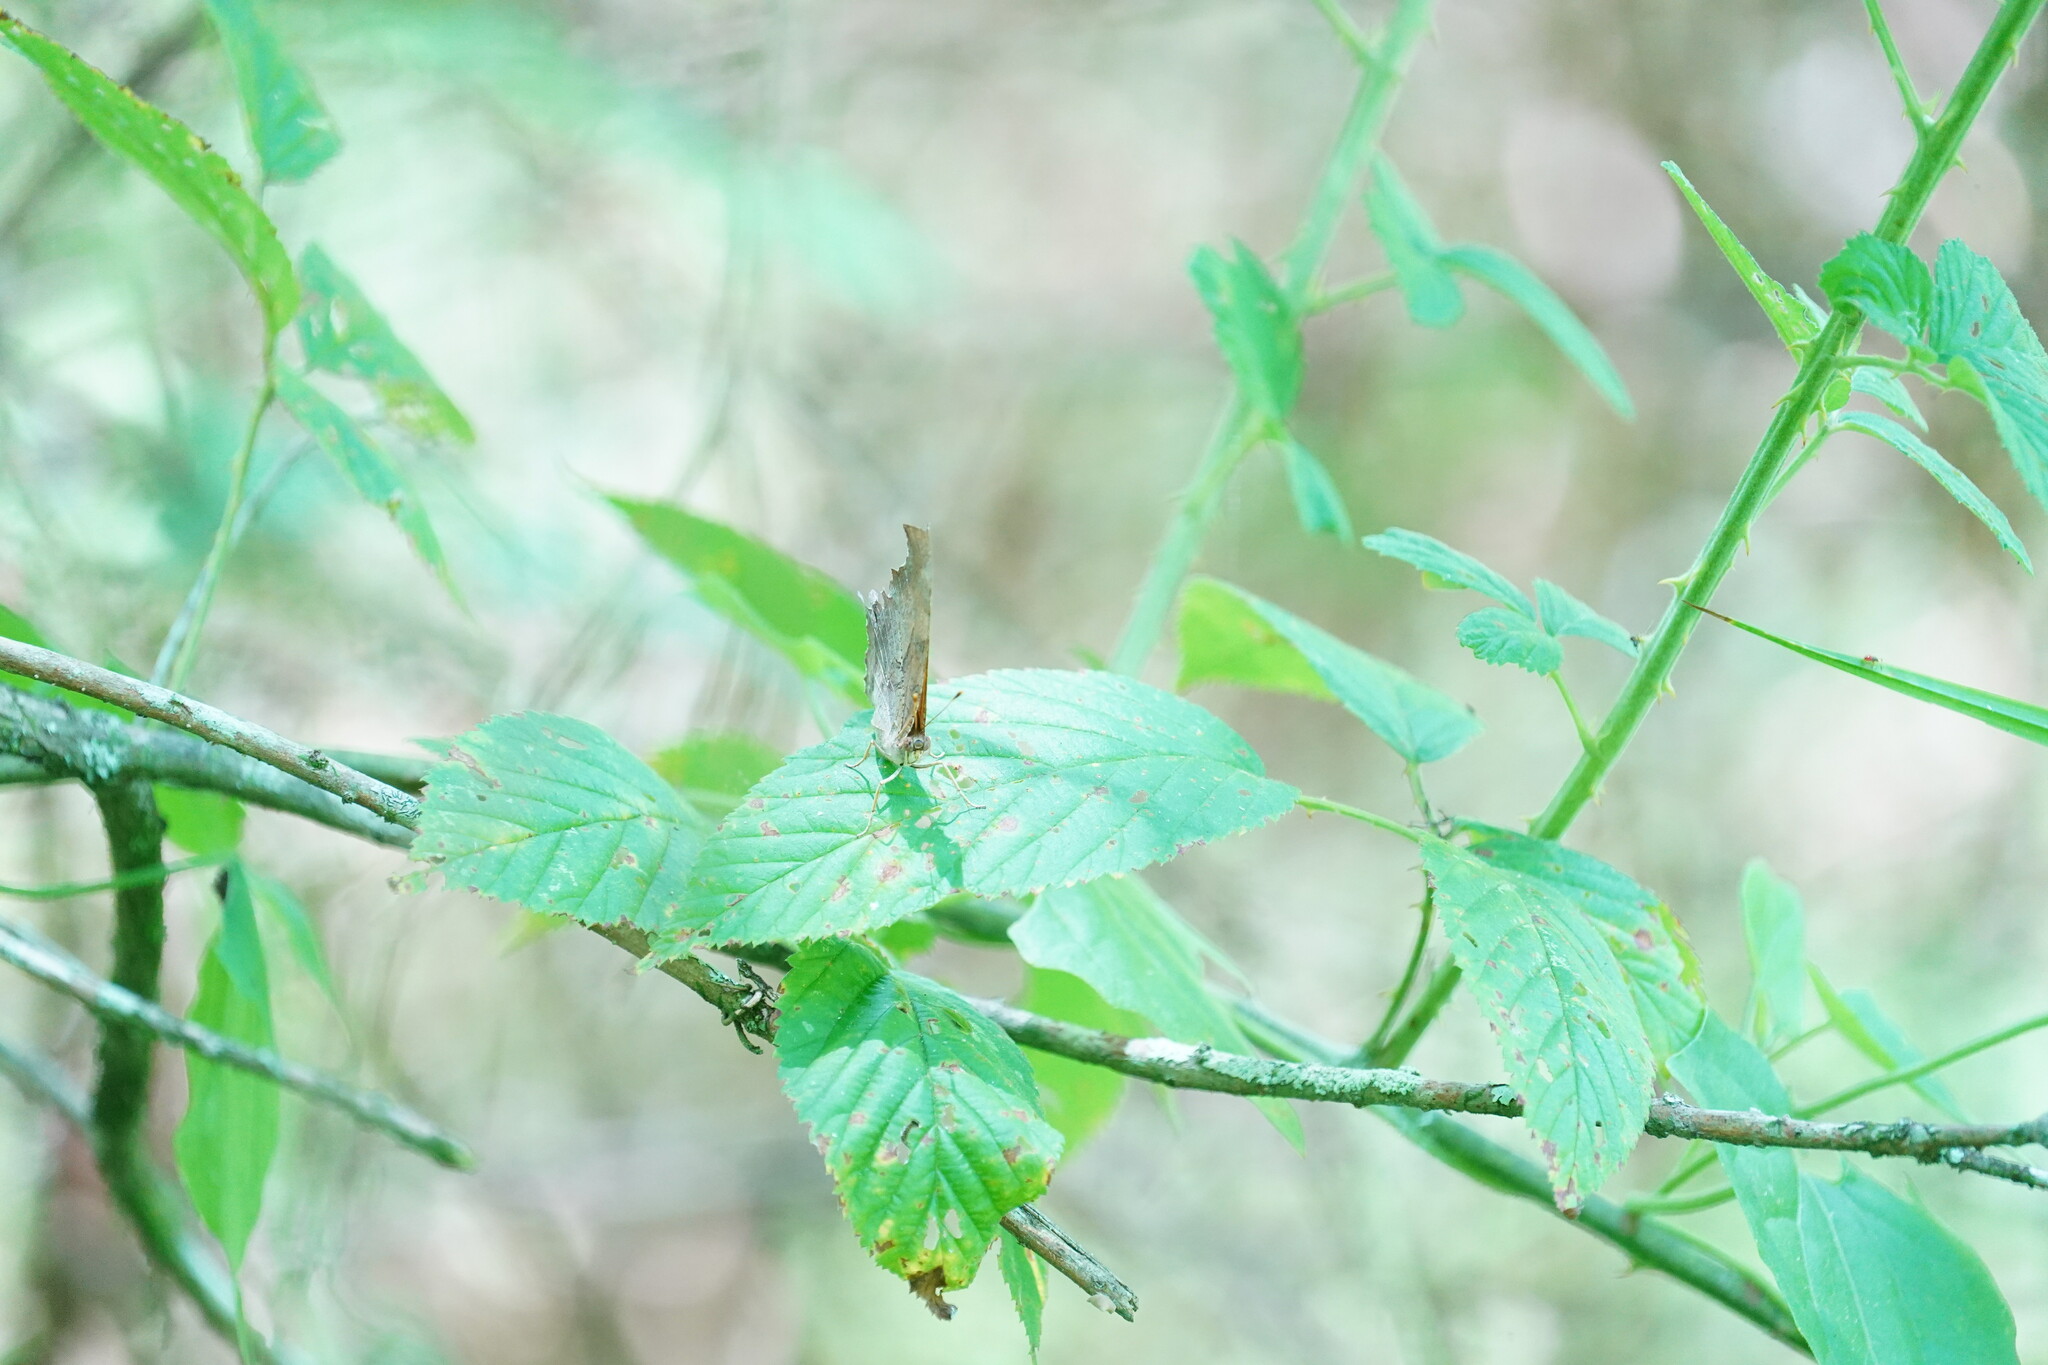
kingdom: Animalia
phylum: Arthropoda
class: Insecta
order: Lepidoptera
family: Nymphalidae
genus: Polygonia
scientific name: Polygonia interrogationis
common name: Question mark
